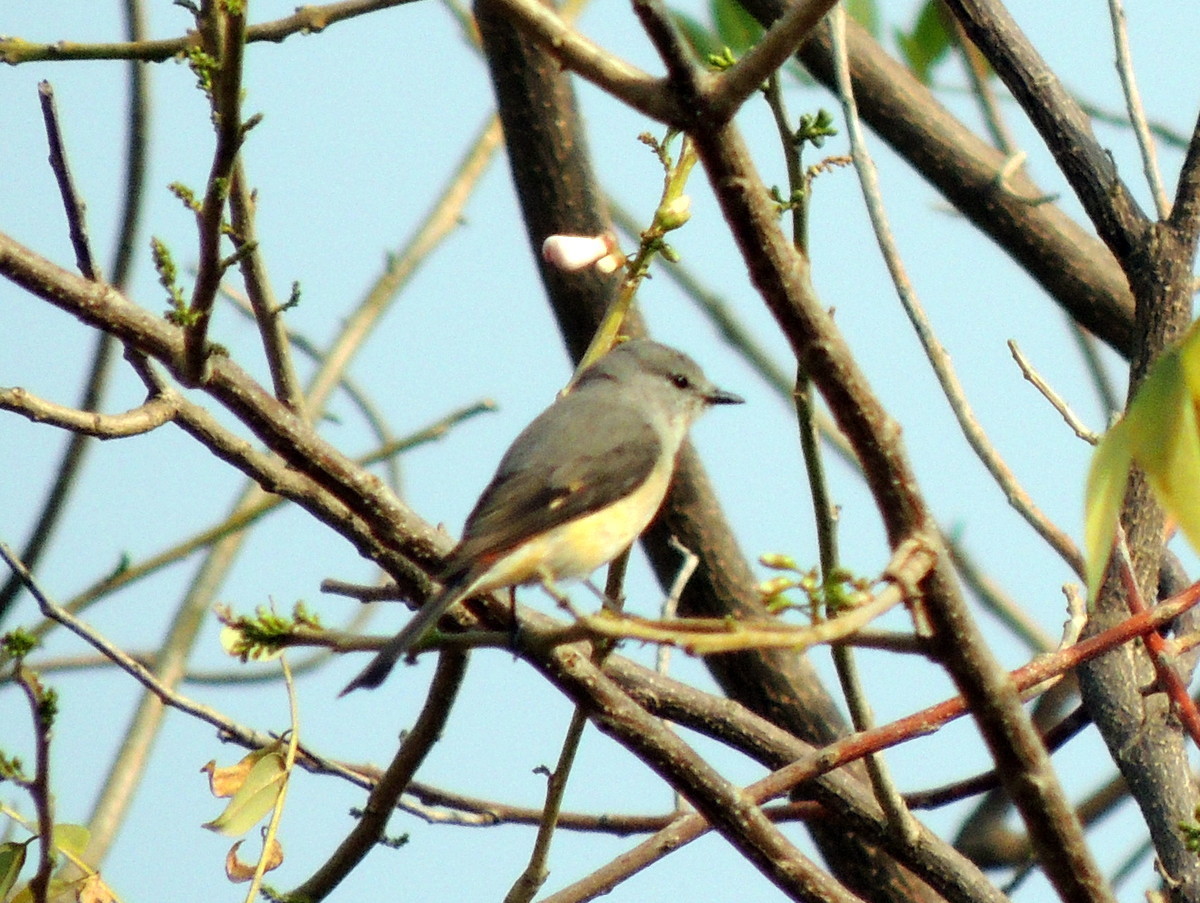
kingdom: Animalia
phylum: Chordata
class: Aves
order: Passeriformes
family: Campephagidae
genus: Pericrocotus
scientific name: Pericrocotus cinnamomeus
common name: Small minivet
